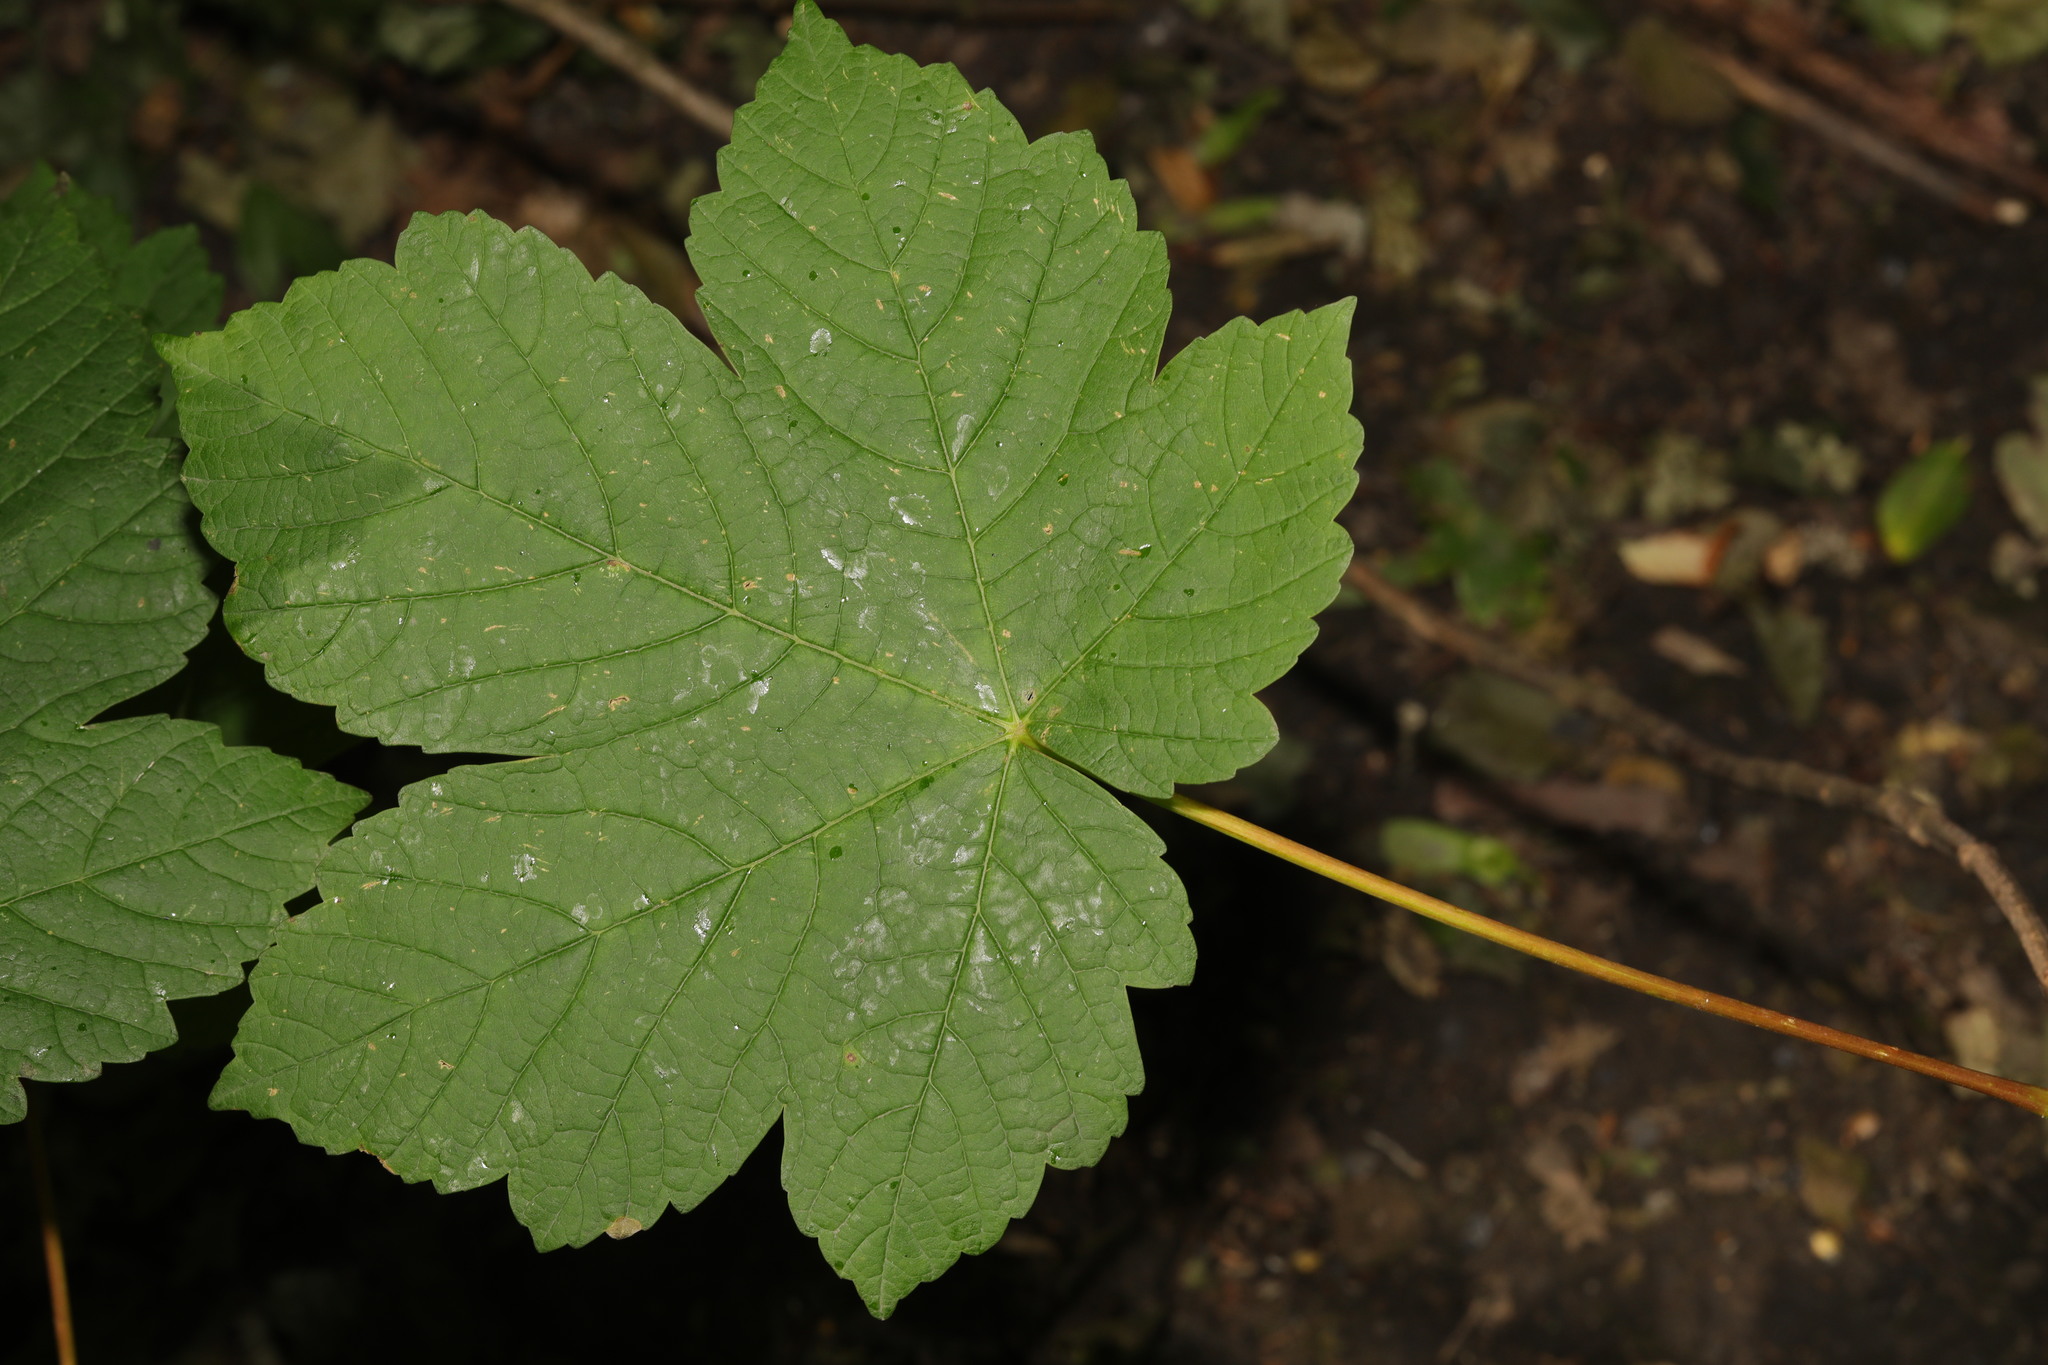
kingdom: Plantae
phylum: Tracheophyta
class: Magnoliopsida
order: Sapindales
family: Sapindaceae
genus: Acer
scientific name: Acer pseudoplatanus
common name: Sycamore
